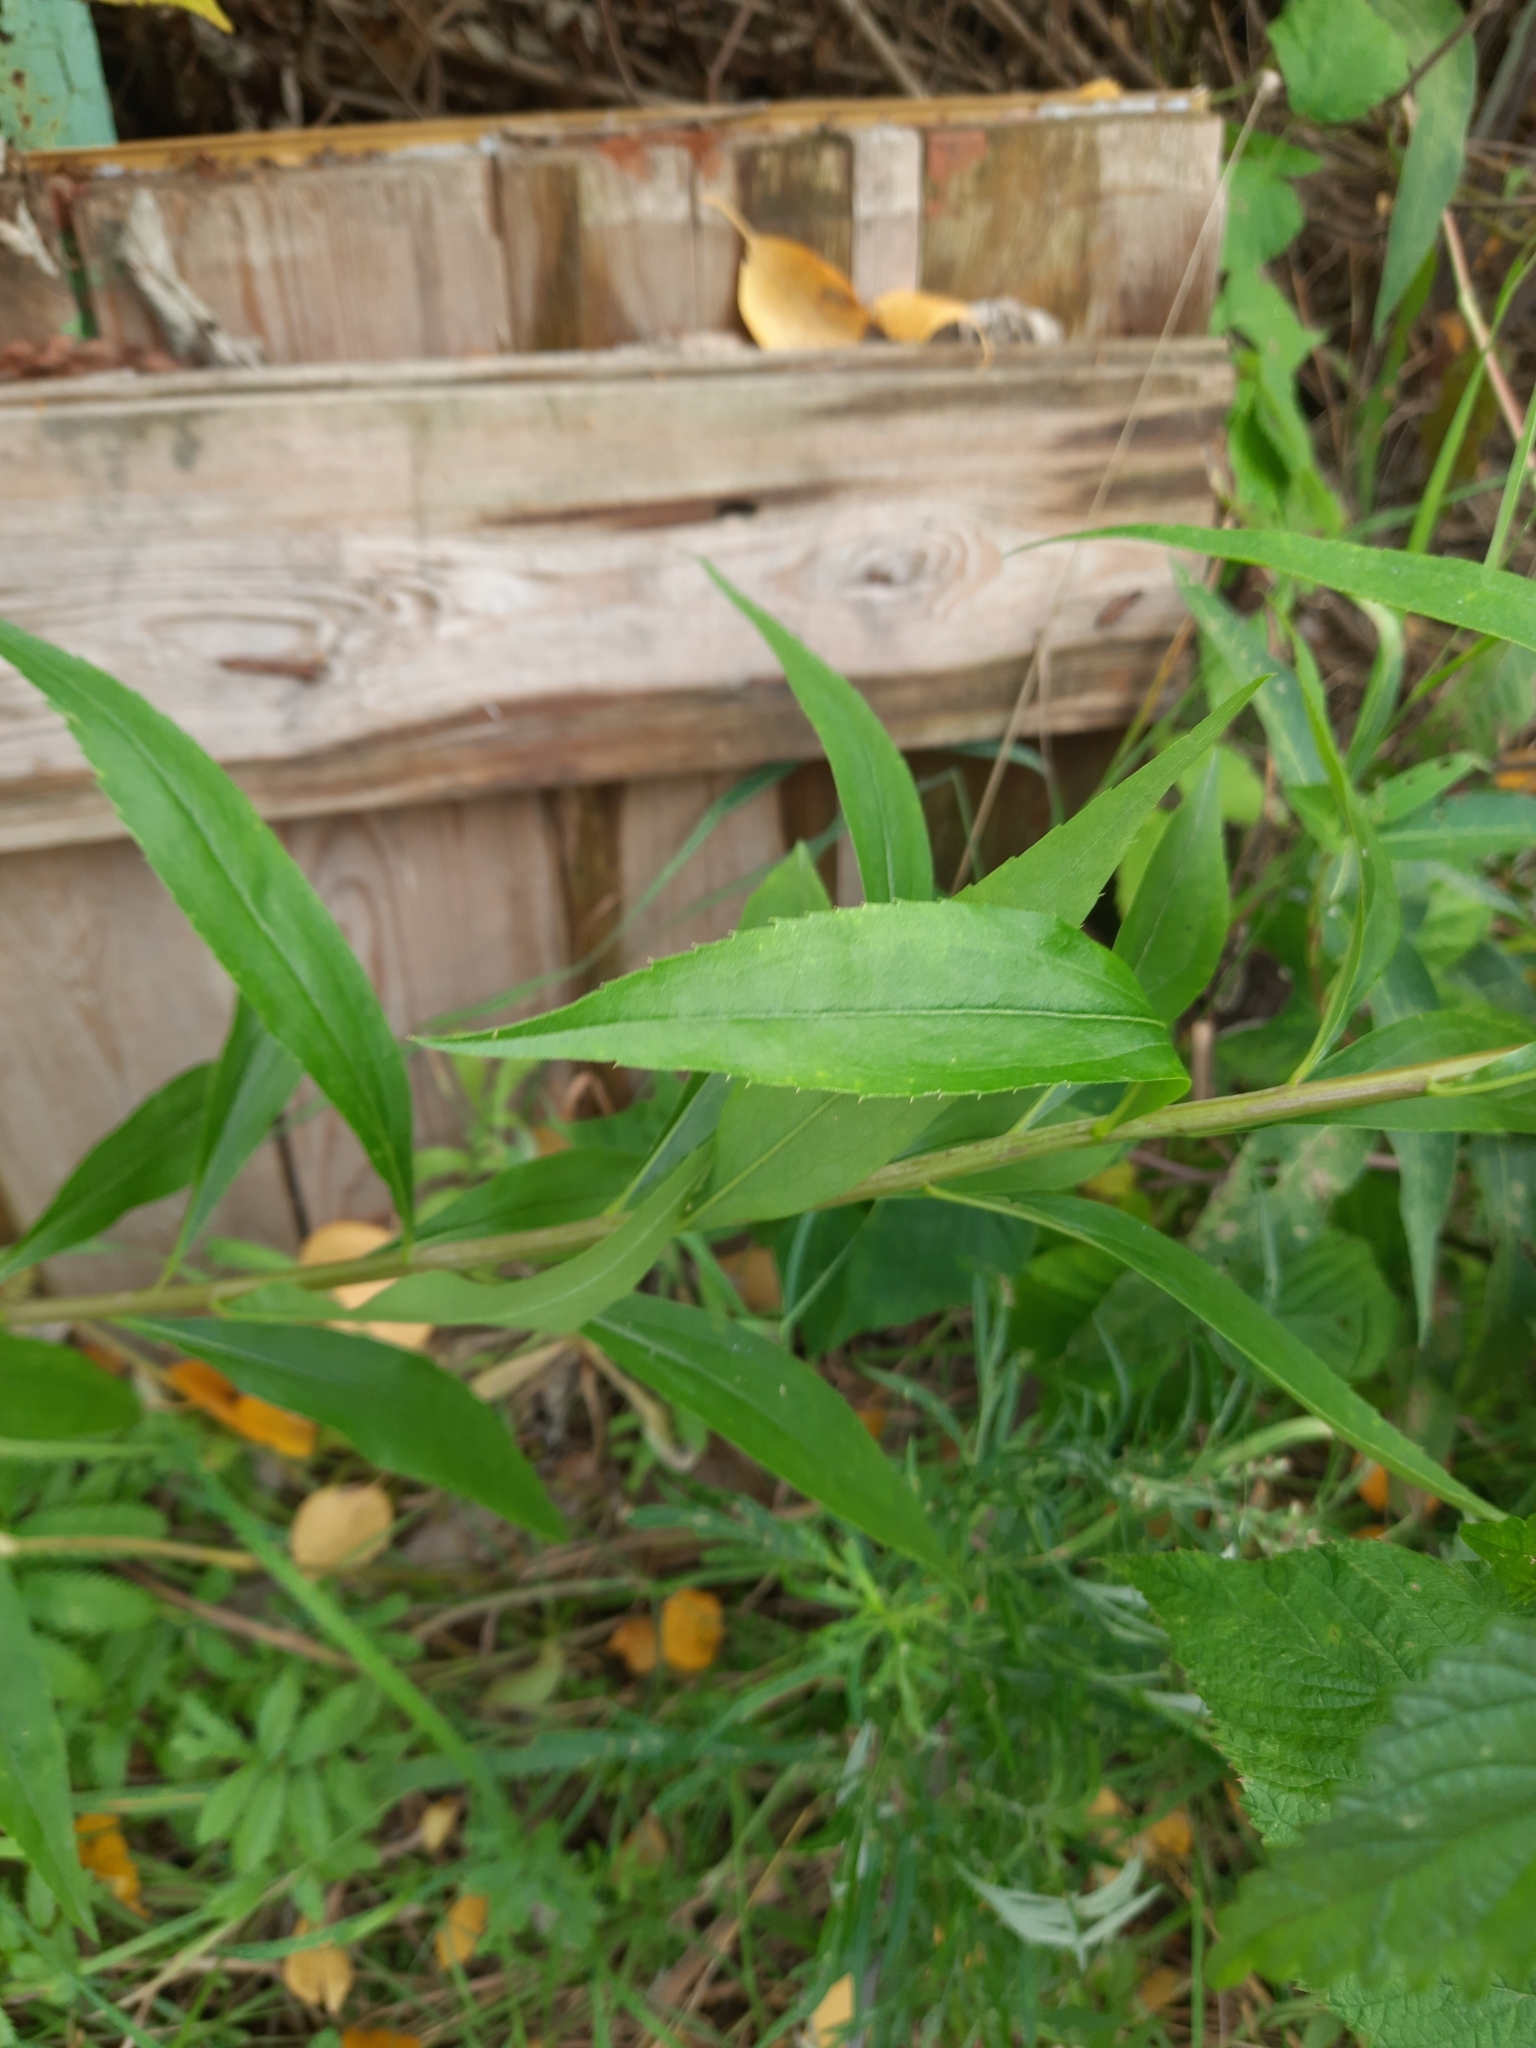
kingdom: Plantae
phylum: Tracheophyta
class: Magnoliopsida
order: Asterales
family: Asteraceae
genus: Solidago
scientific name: Solidago gigantea
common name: Giant goldenrod
